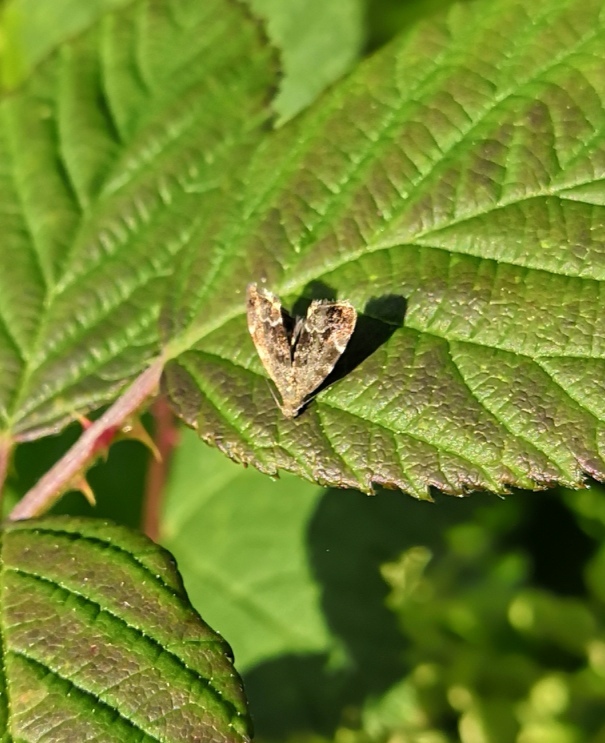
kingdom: Animalia
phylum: Arthropoda
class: Insecta
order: Lepidoptera
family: Choreutidae
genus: Anthophila
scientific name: Anthophila fabriciana
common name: Nettle-tap
